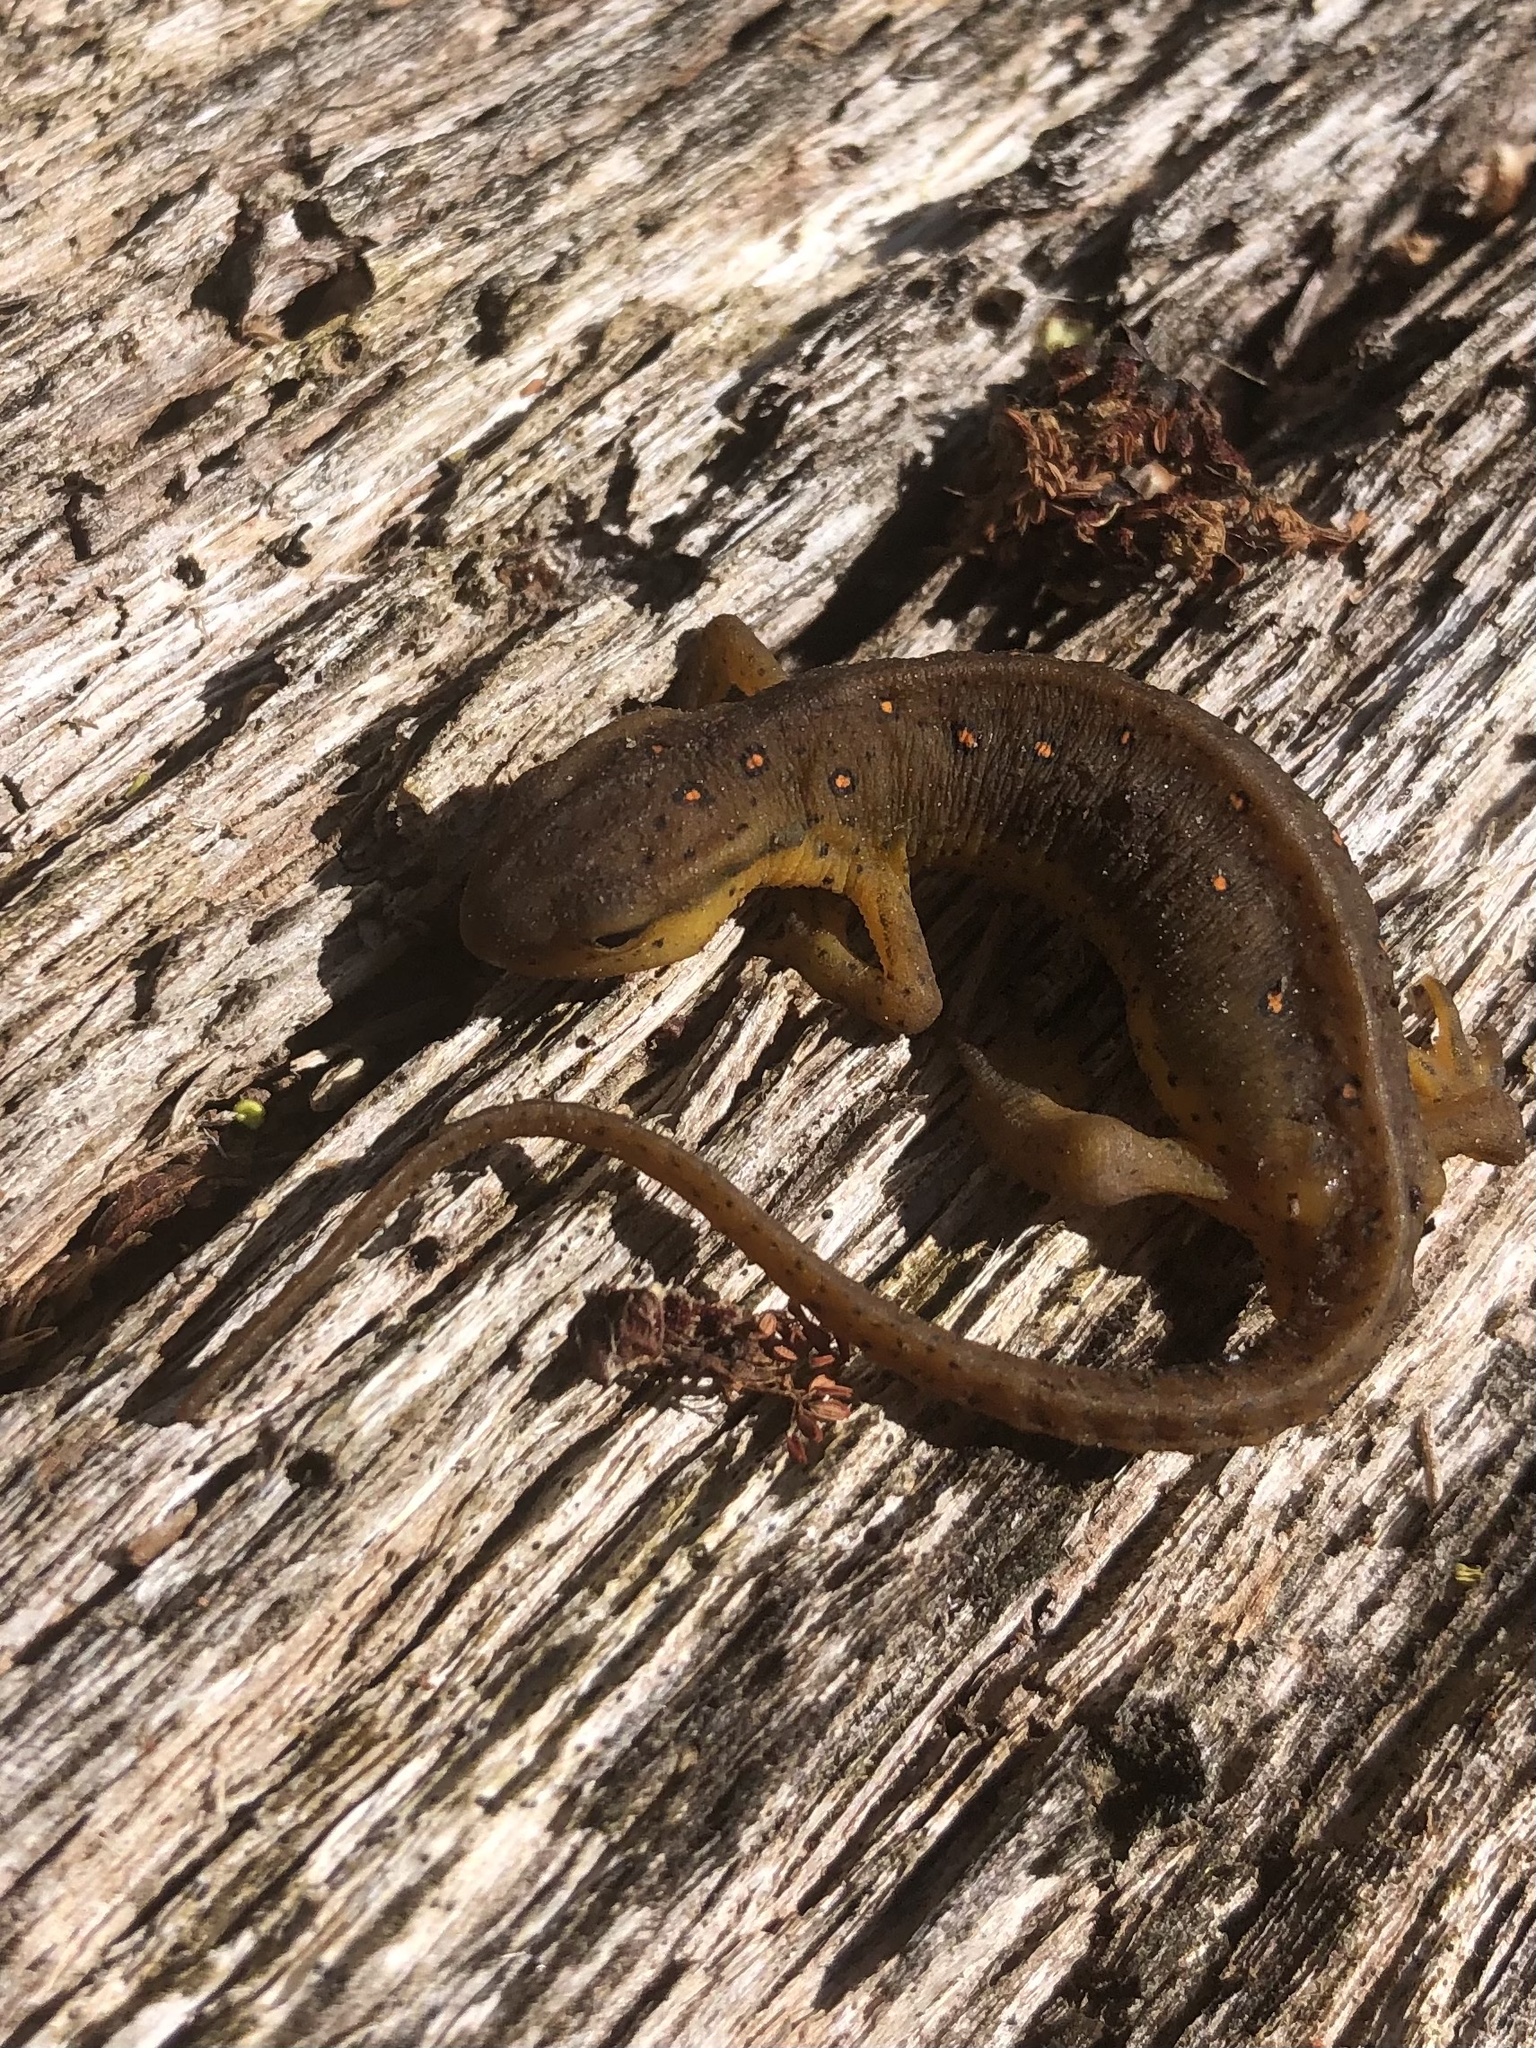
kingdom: Animalia
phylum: Chordata
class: Amphibia
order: Caudata
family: Salamandridae
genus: Notophthalmus
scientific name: Notophthalmus viridescens
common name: Eastern newt
